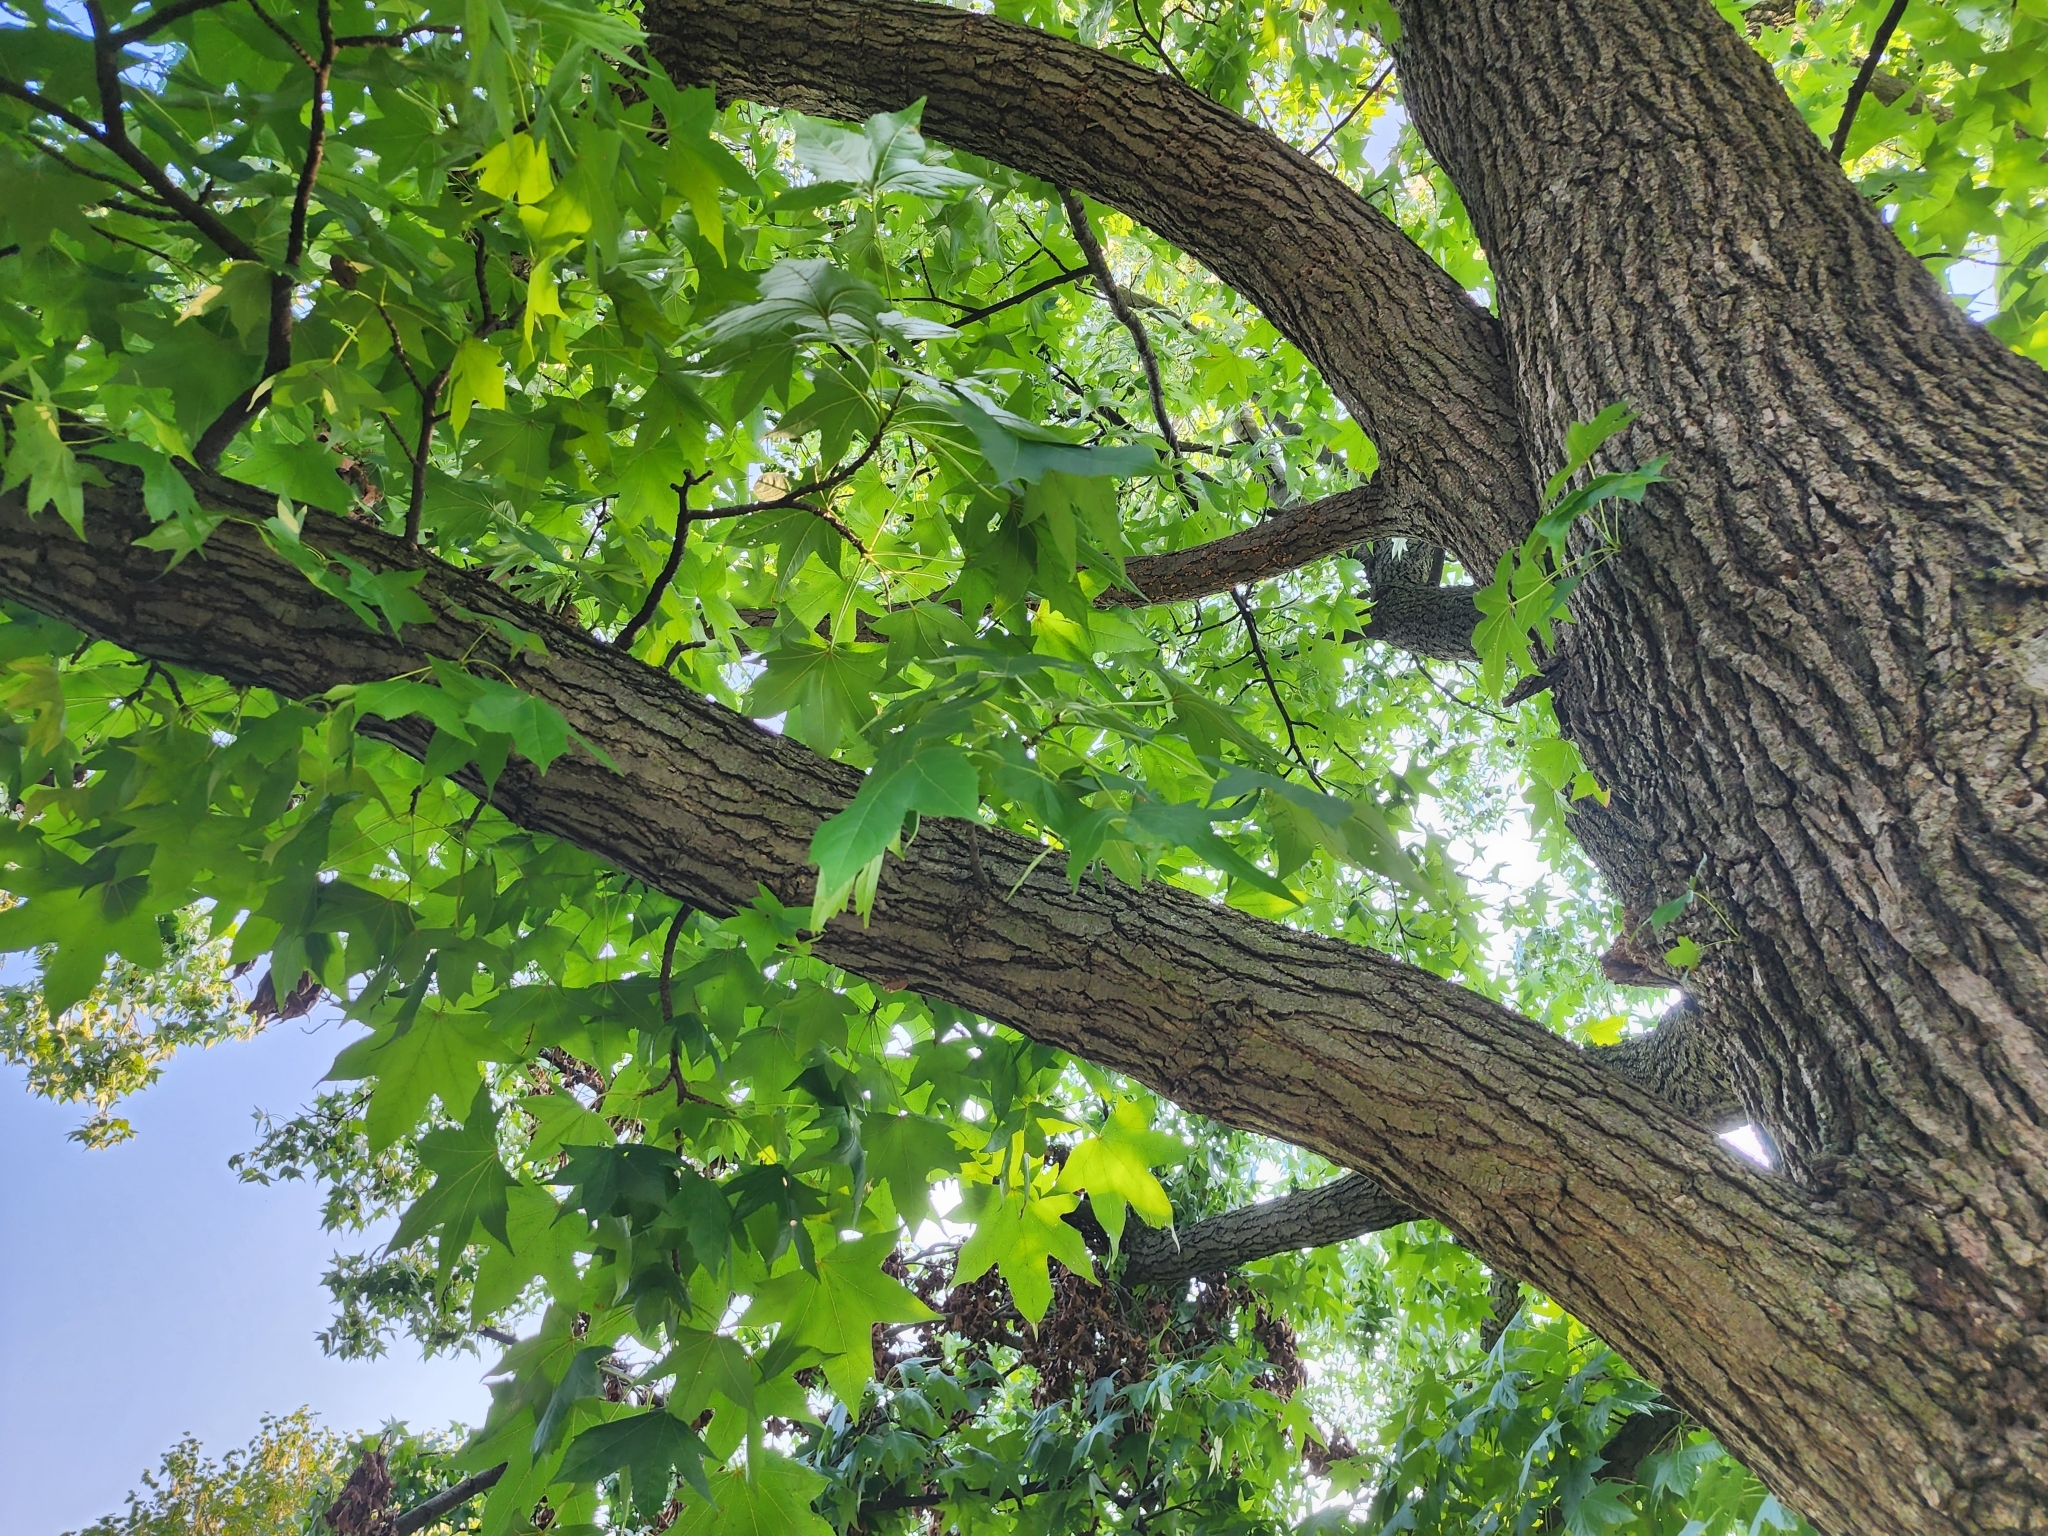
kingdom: Plantae
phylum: Tracheophyta
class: Magnoliopsida
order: Saxifragales
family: Altingiaceae
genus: Liquidambar
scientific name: Liquidambar styraciflua
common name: Sweet gum
